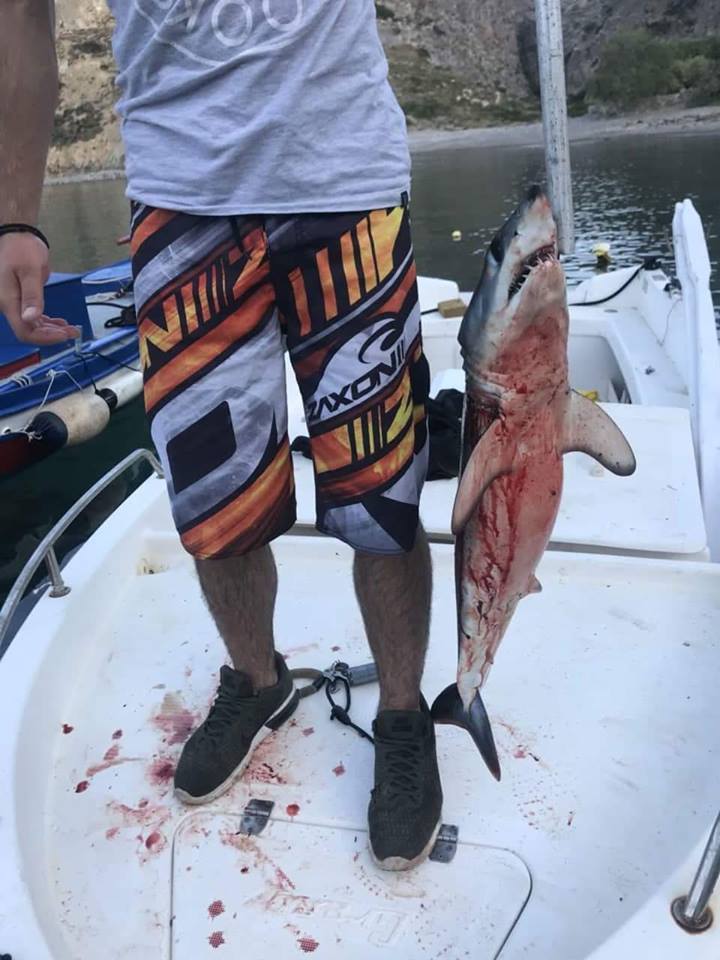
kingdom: Animalia
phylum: Chordata
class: Elasmobranchii
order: Lamniformes
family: Lamnidae
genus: Isurus
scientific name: Isurus oxyrinchus
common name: Shortfin mako
